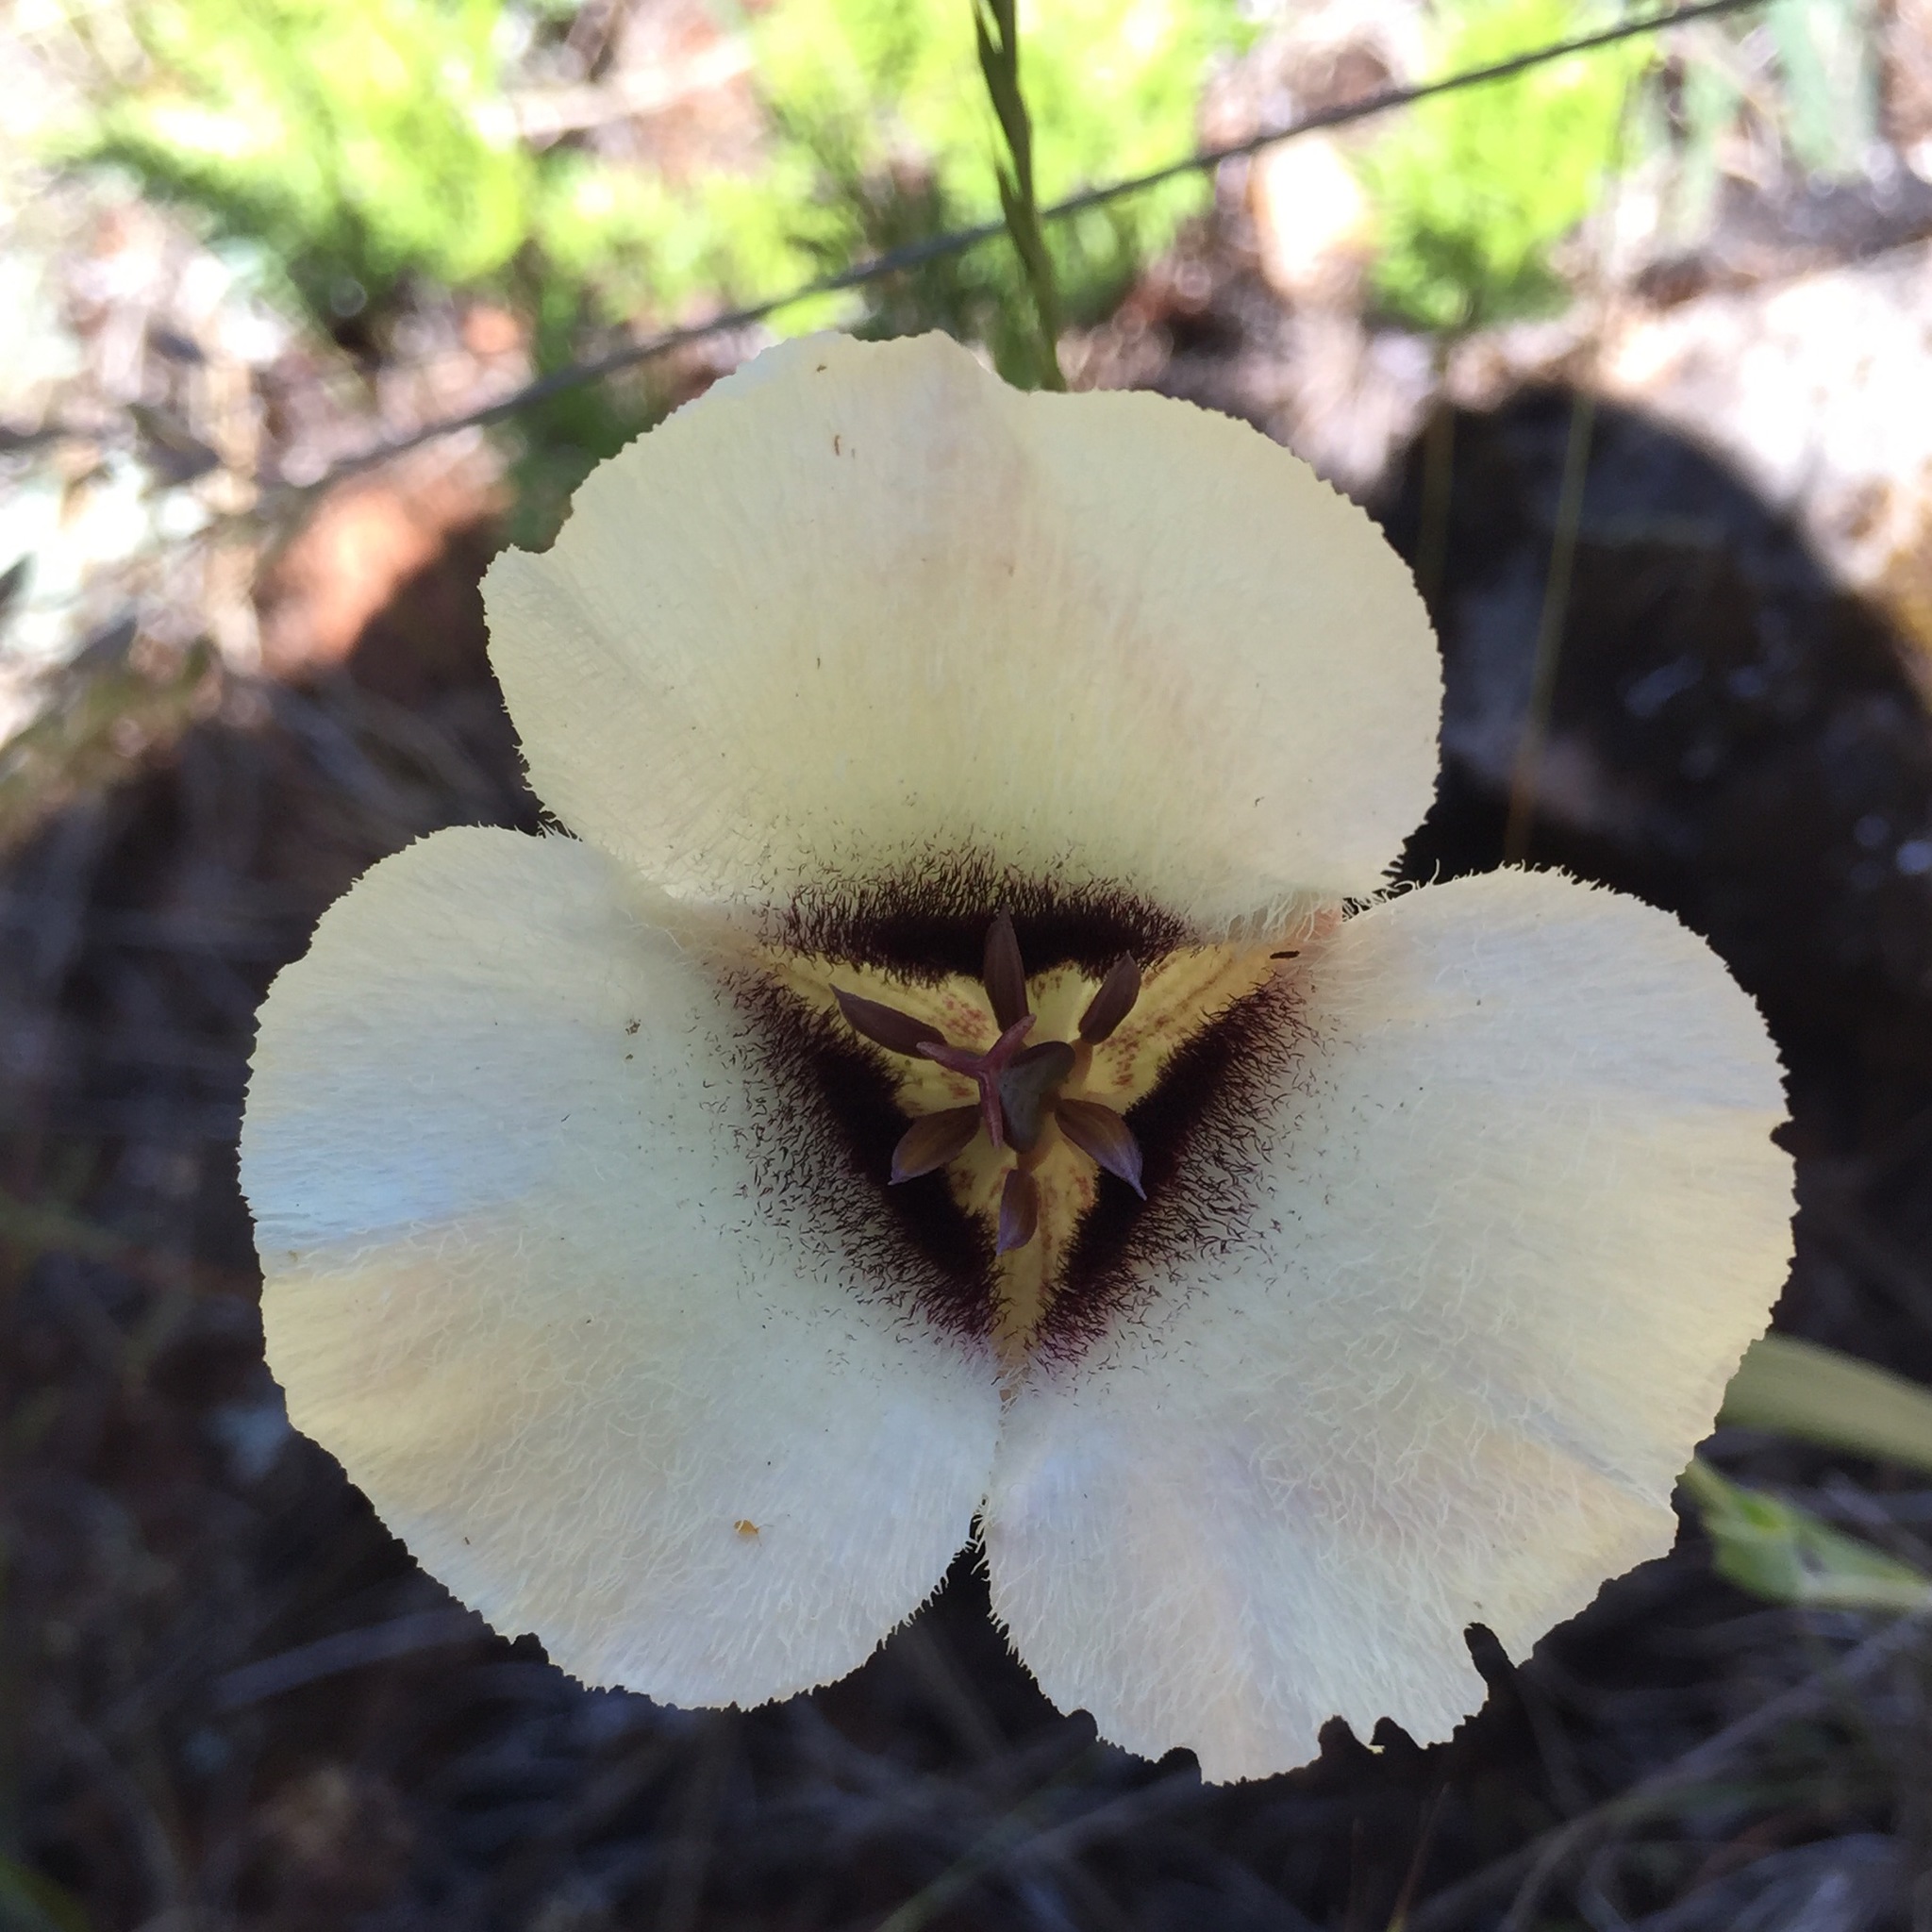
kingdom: Plantae
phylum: Tracheophyta
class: Liliopsida
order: Liliales
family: Liliaceae
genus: Calochortus
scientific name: Calochortus umpquaensis
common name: Umpqua mariposa-lily
